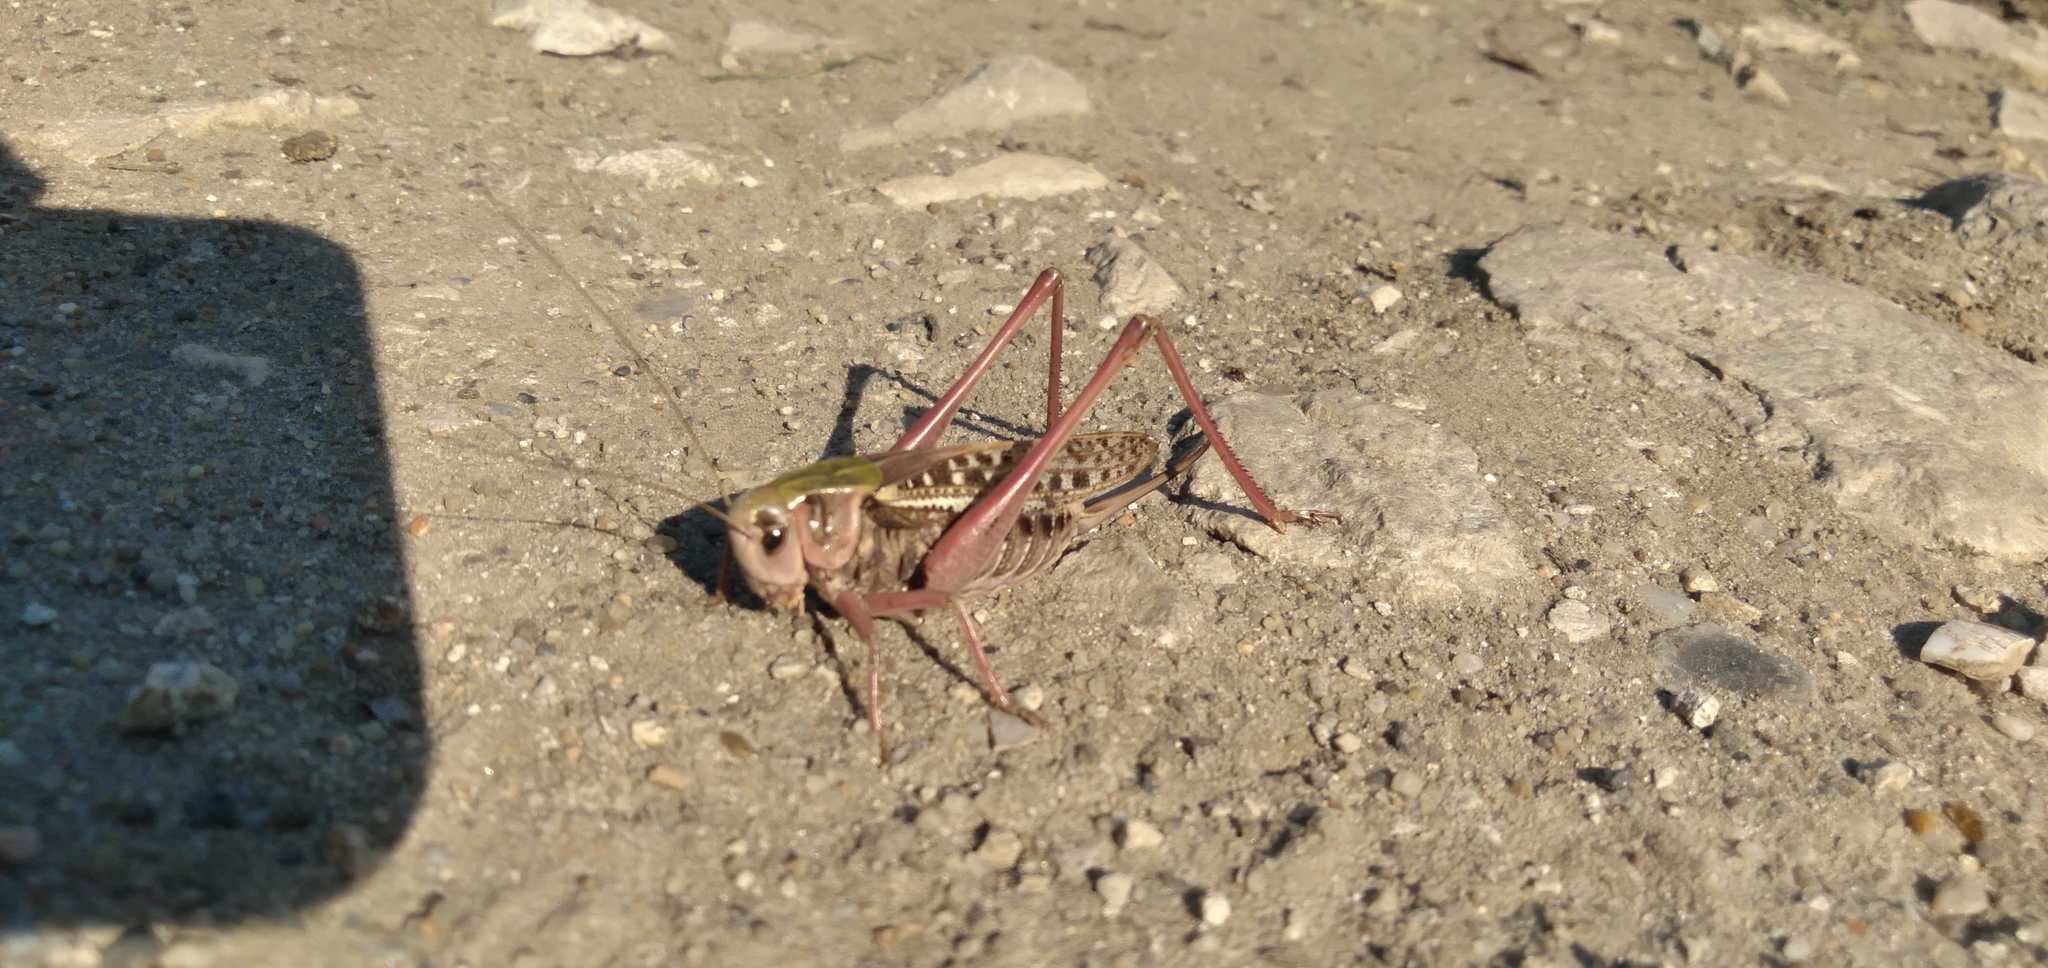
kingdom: Animalia
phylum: Arthropoda
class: Insecta
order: Orthoptera
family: Tettigoniidae
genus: Decticus
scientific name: Decticus verrucivorus
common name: Wart-biter
